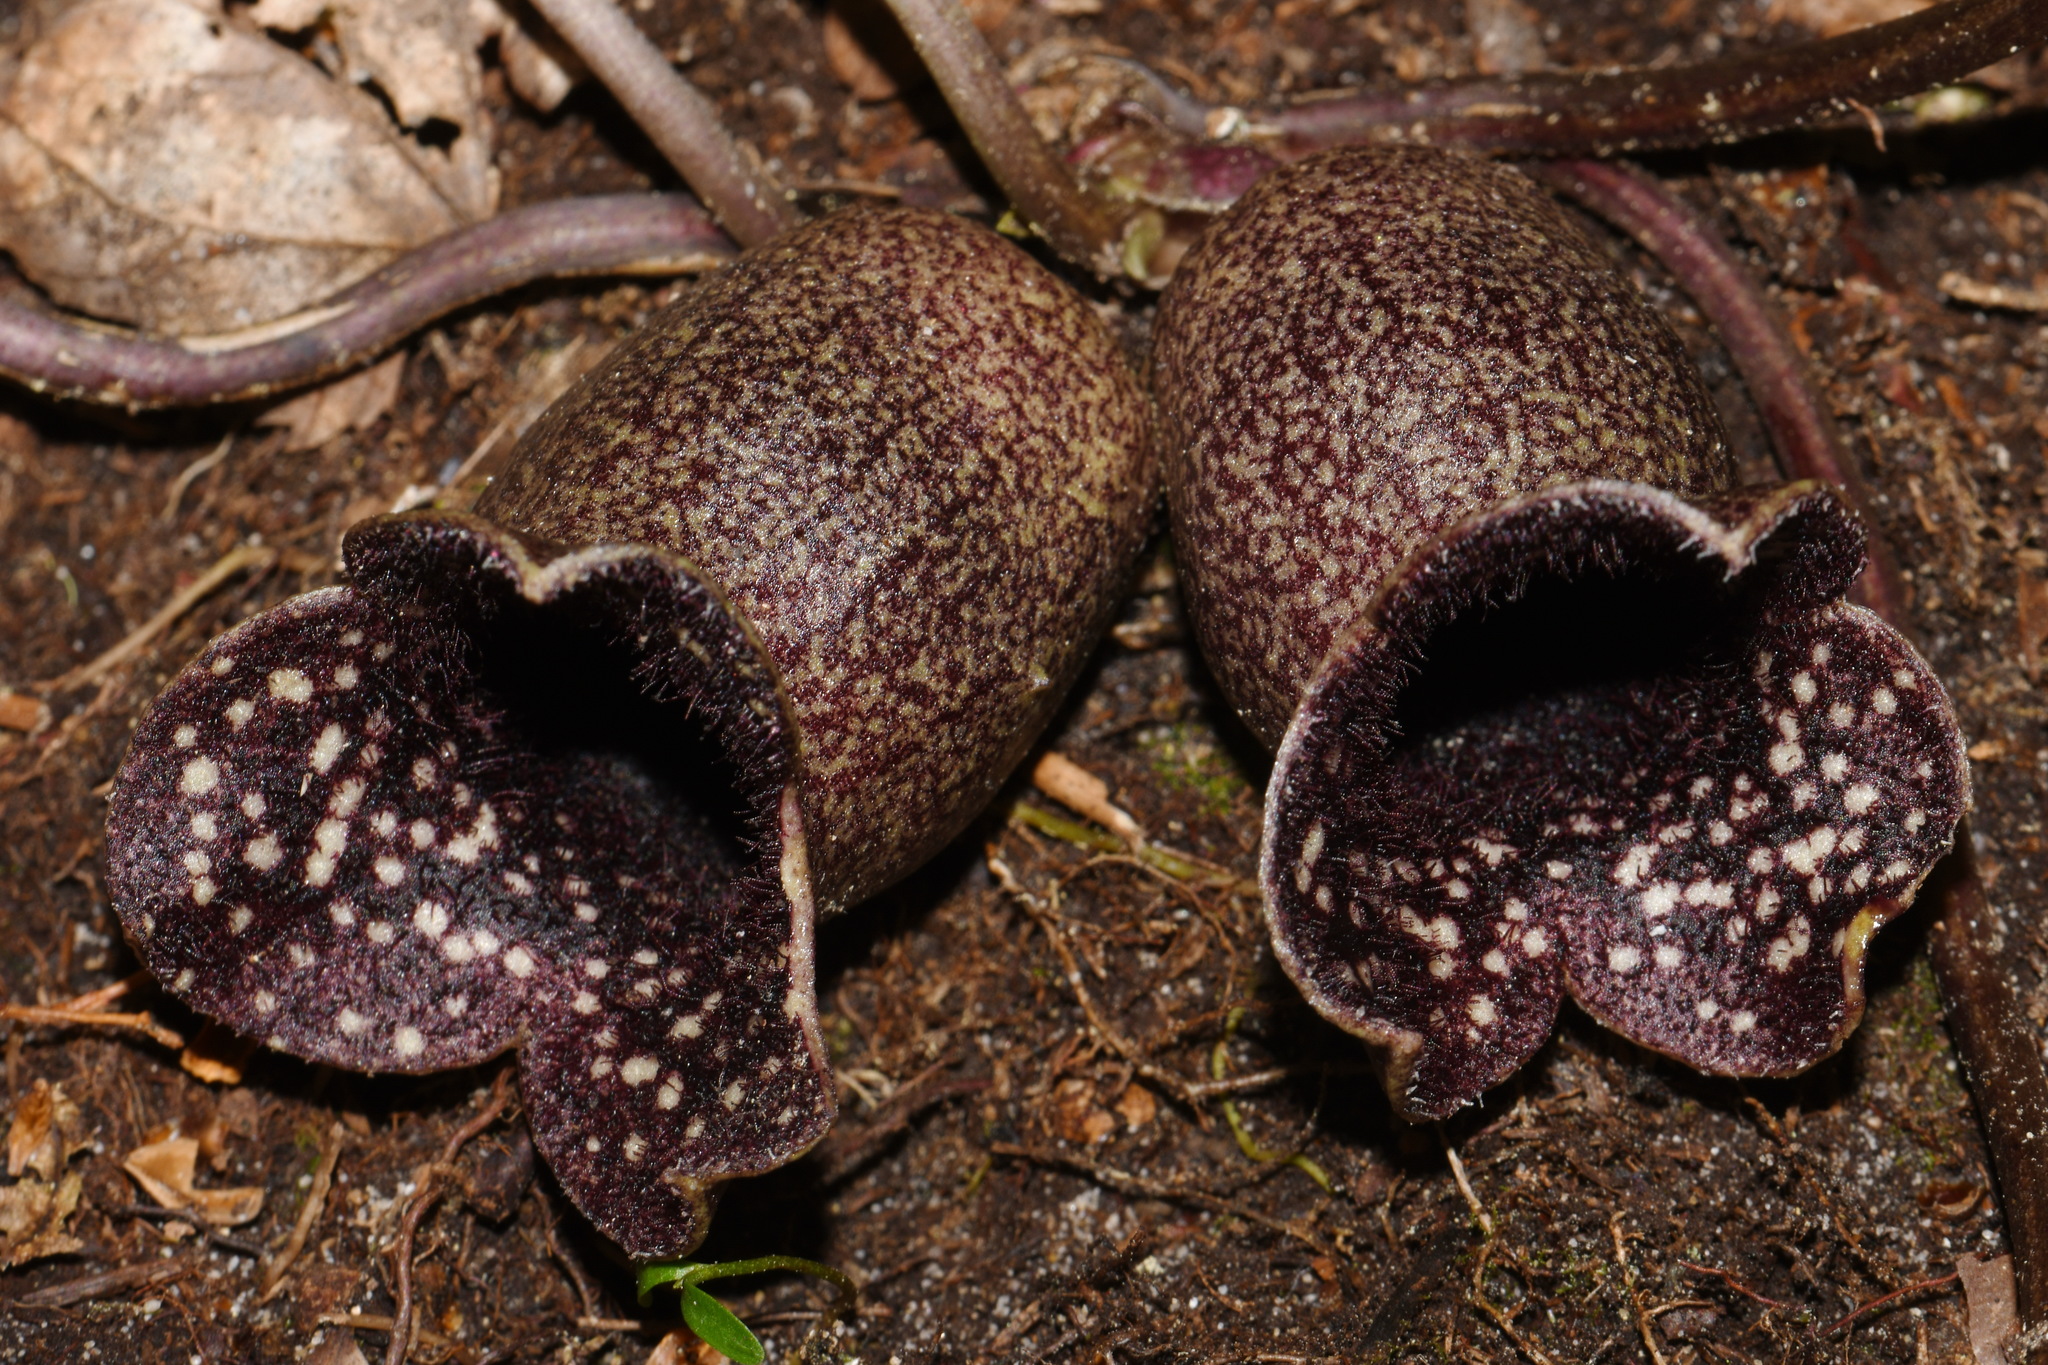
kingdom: Plantae
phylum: Tracheophyta
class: Magnoliopsida
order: Piperales
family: Aristolochiaceae
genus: Hexastylis
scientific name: Hexastylis shuttleworthii
